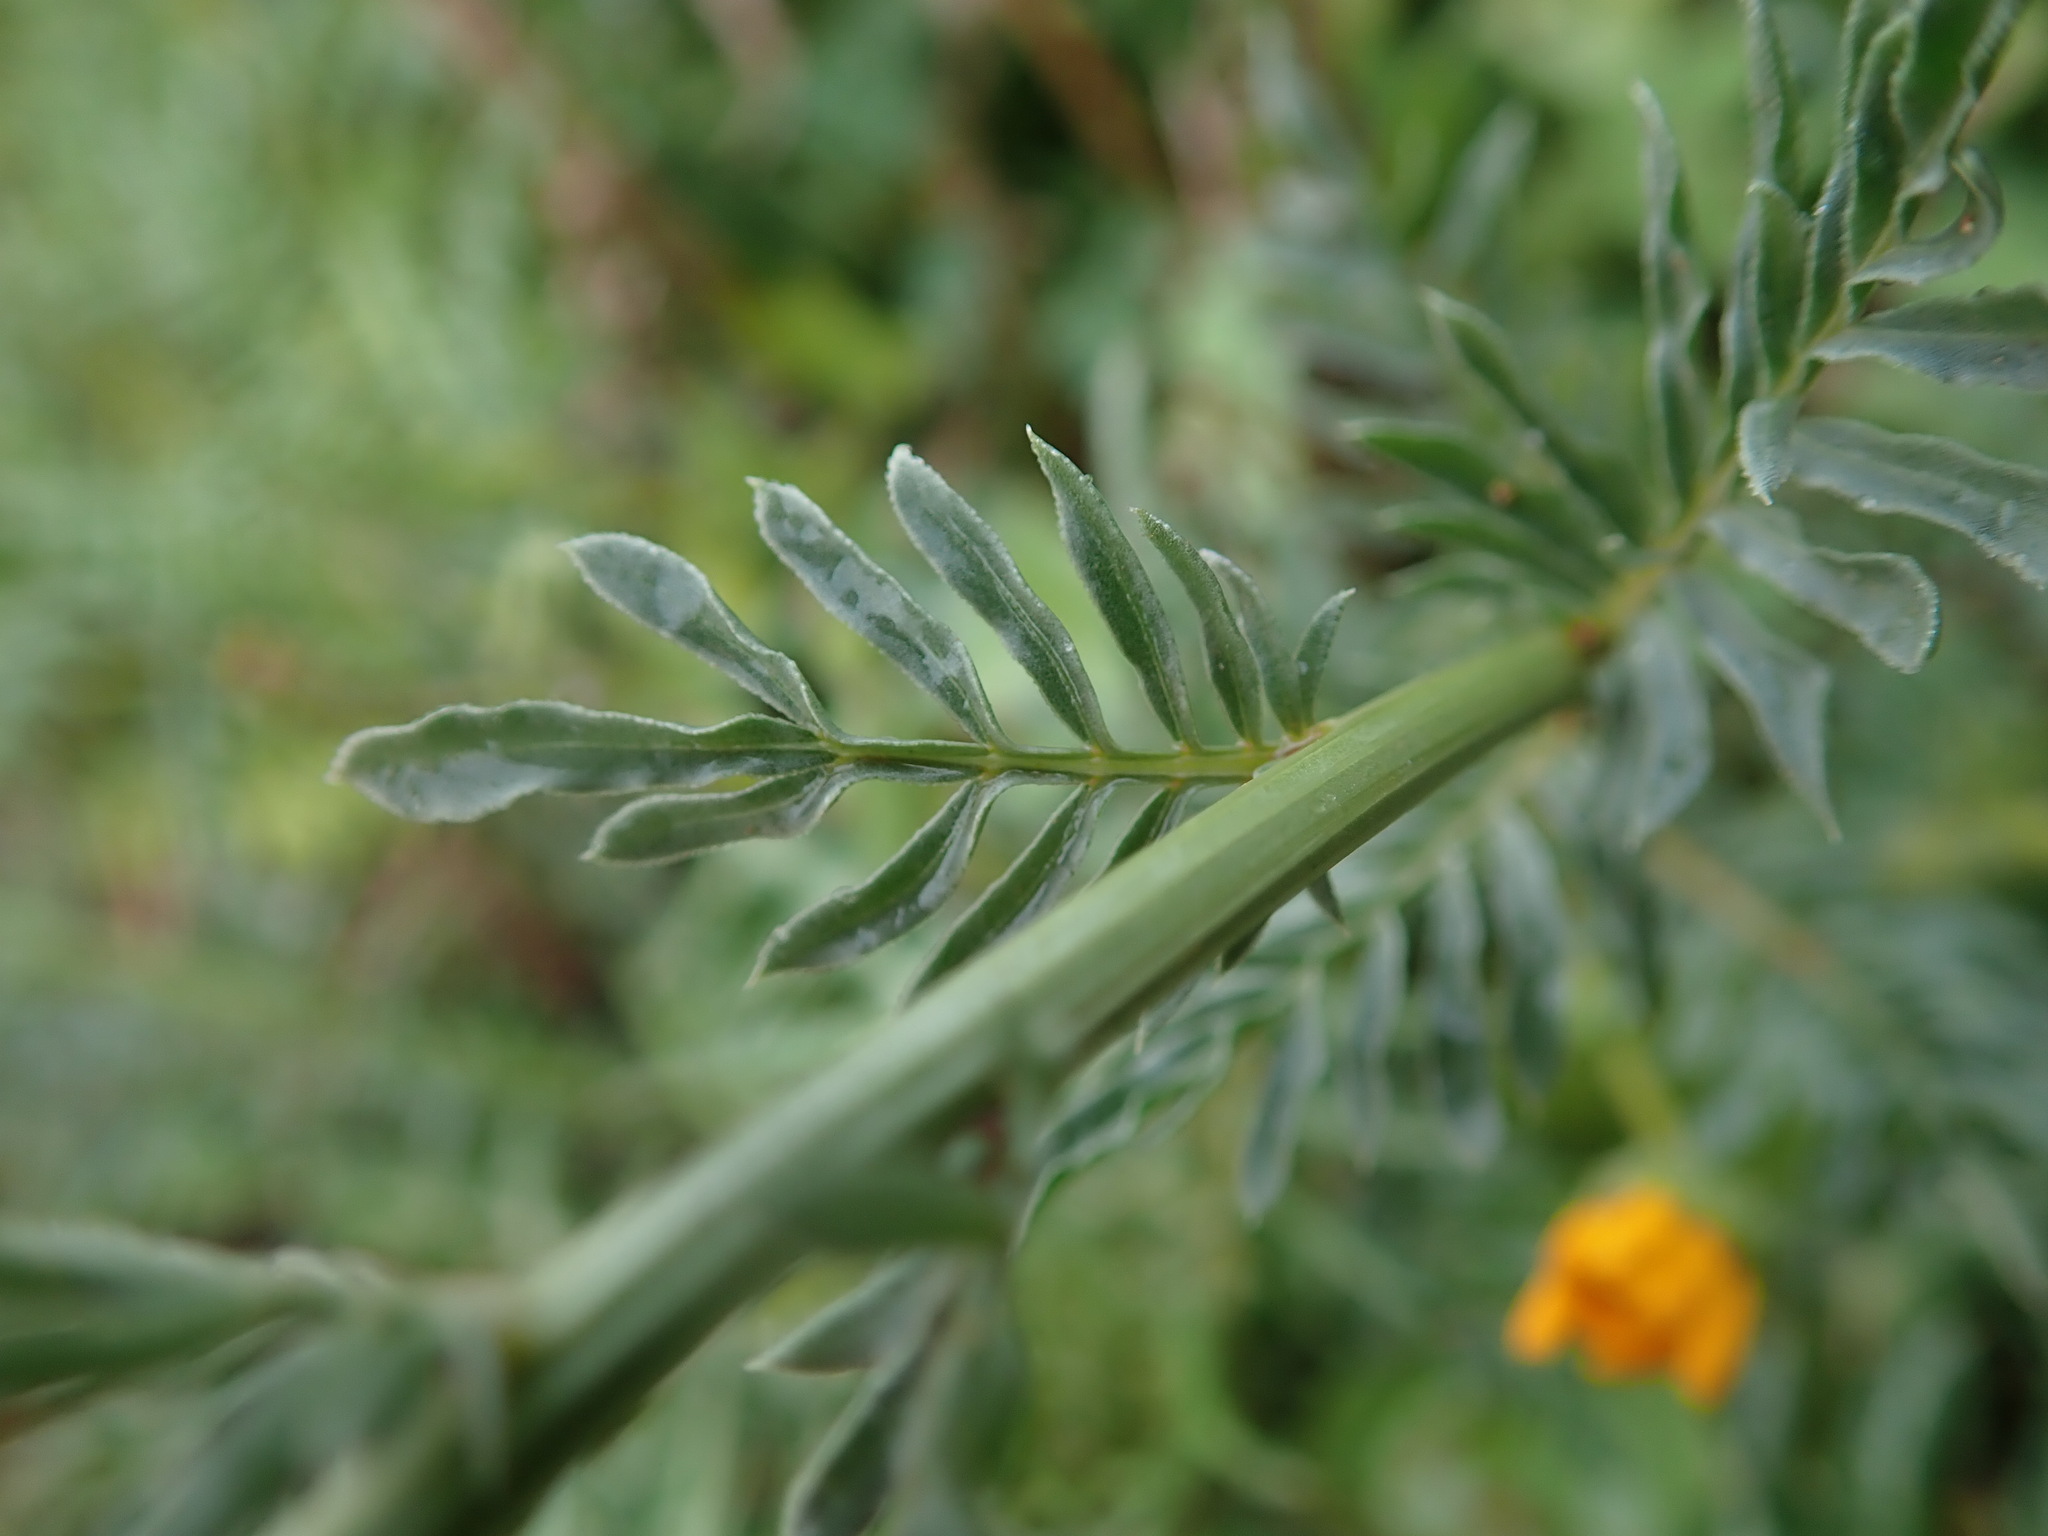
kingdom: Plantae
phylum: Tracheophyta
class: Magnoliopsida
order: Brassicales
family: Resedaceae
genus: Reseda
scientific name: Reseda alba
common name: White mignonette
